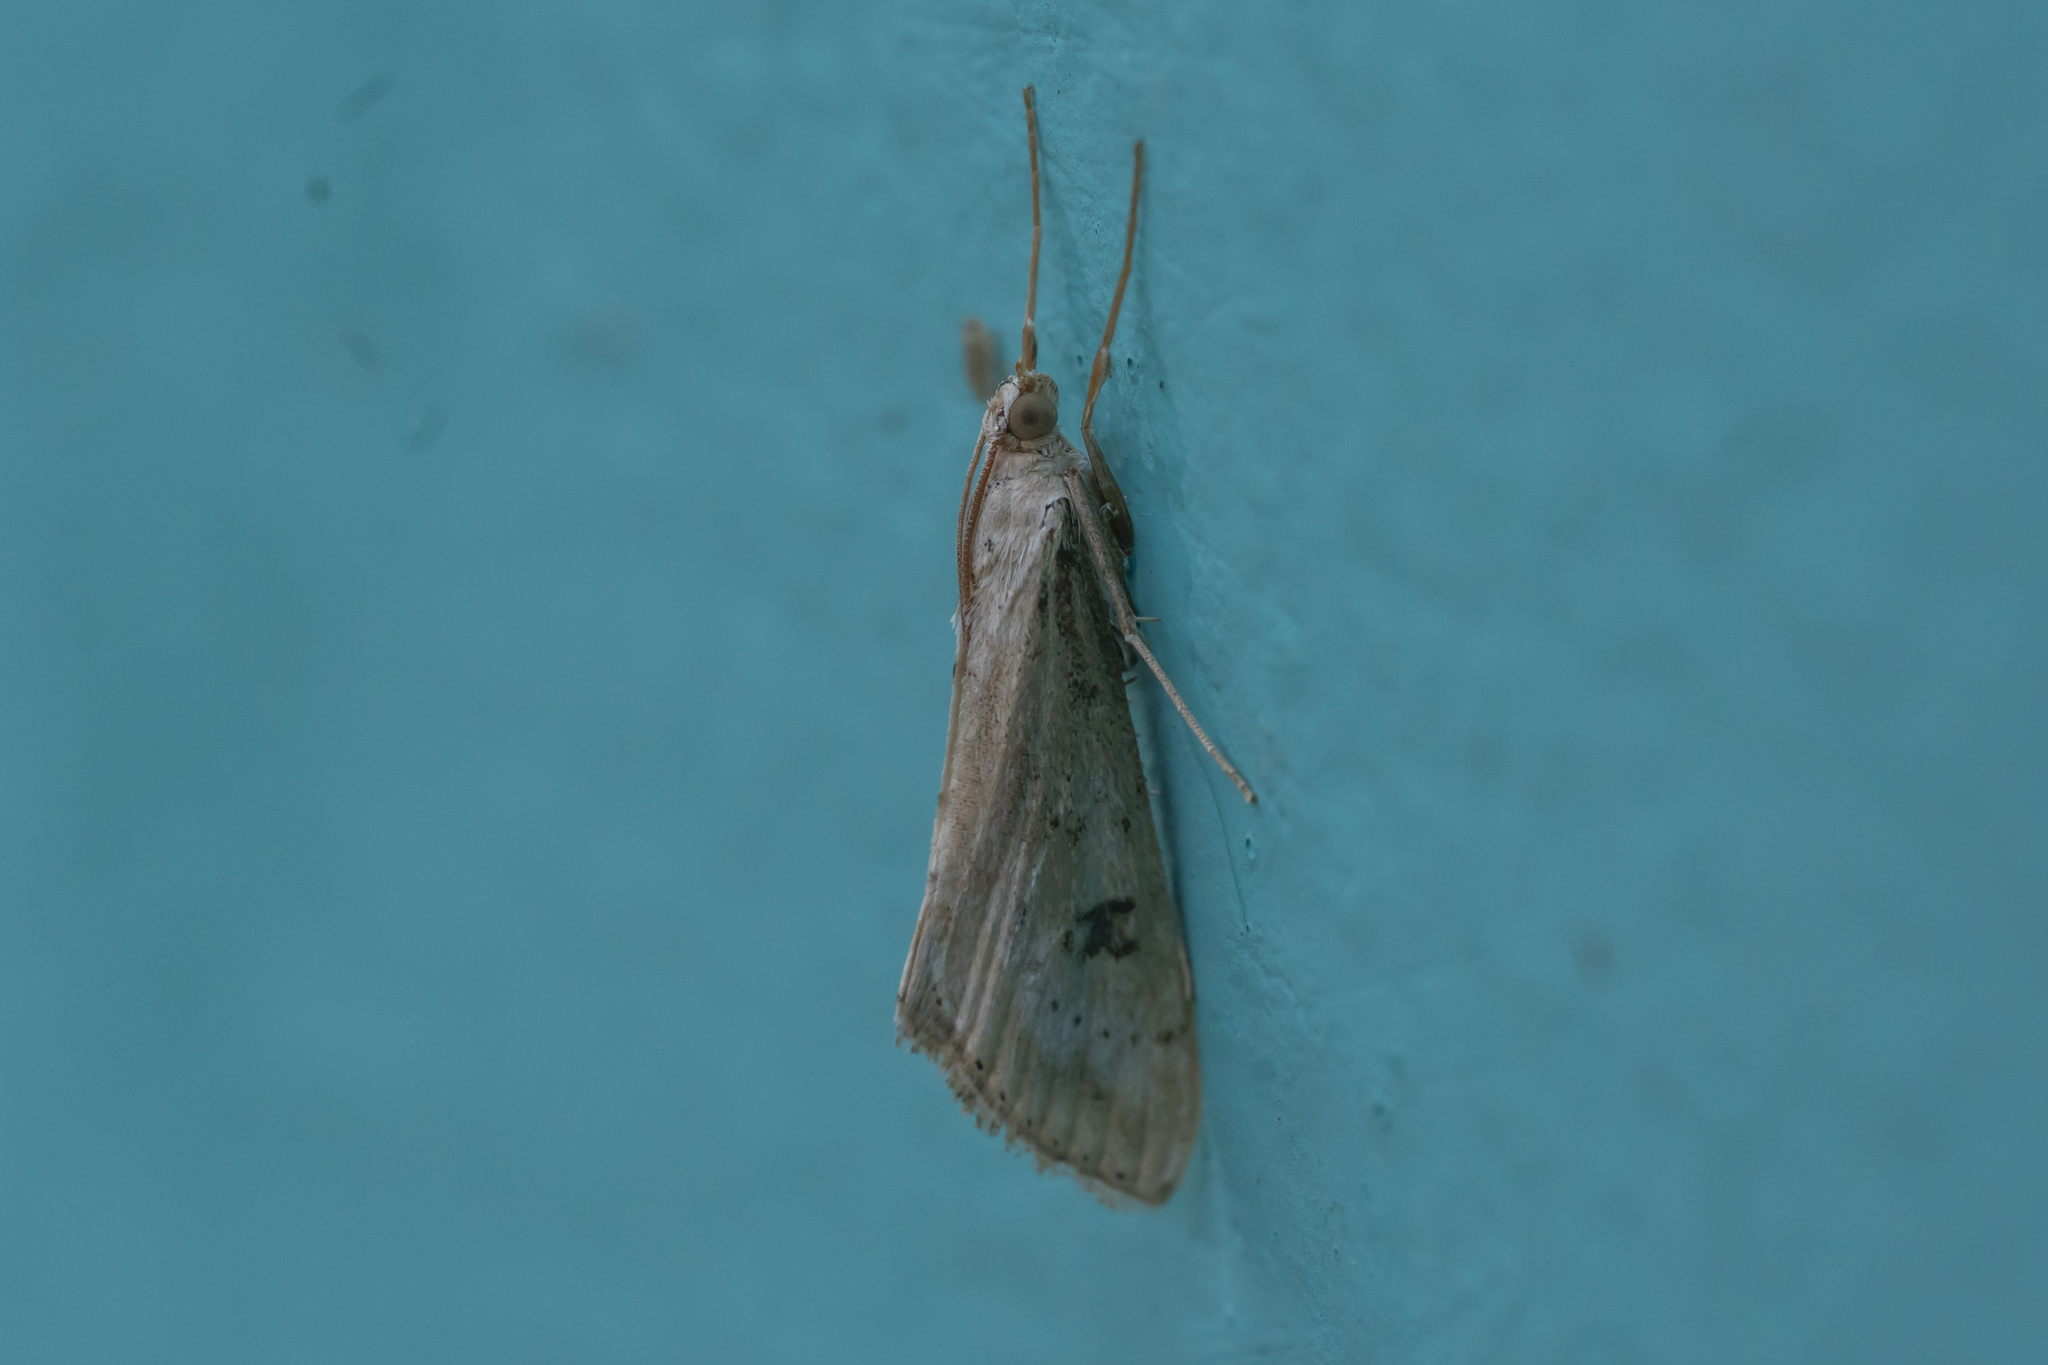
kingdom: Animalia
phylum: Arthropoda
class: Insecta
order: Lepidoptera
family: Crambidae
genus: Evergestis
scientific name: Evergestis isatidalis
